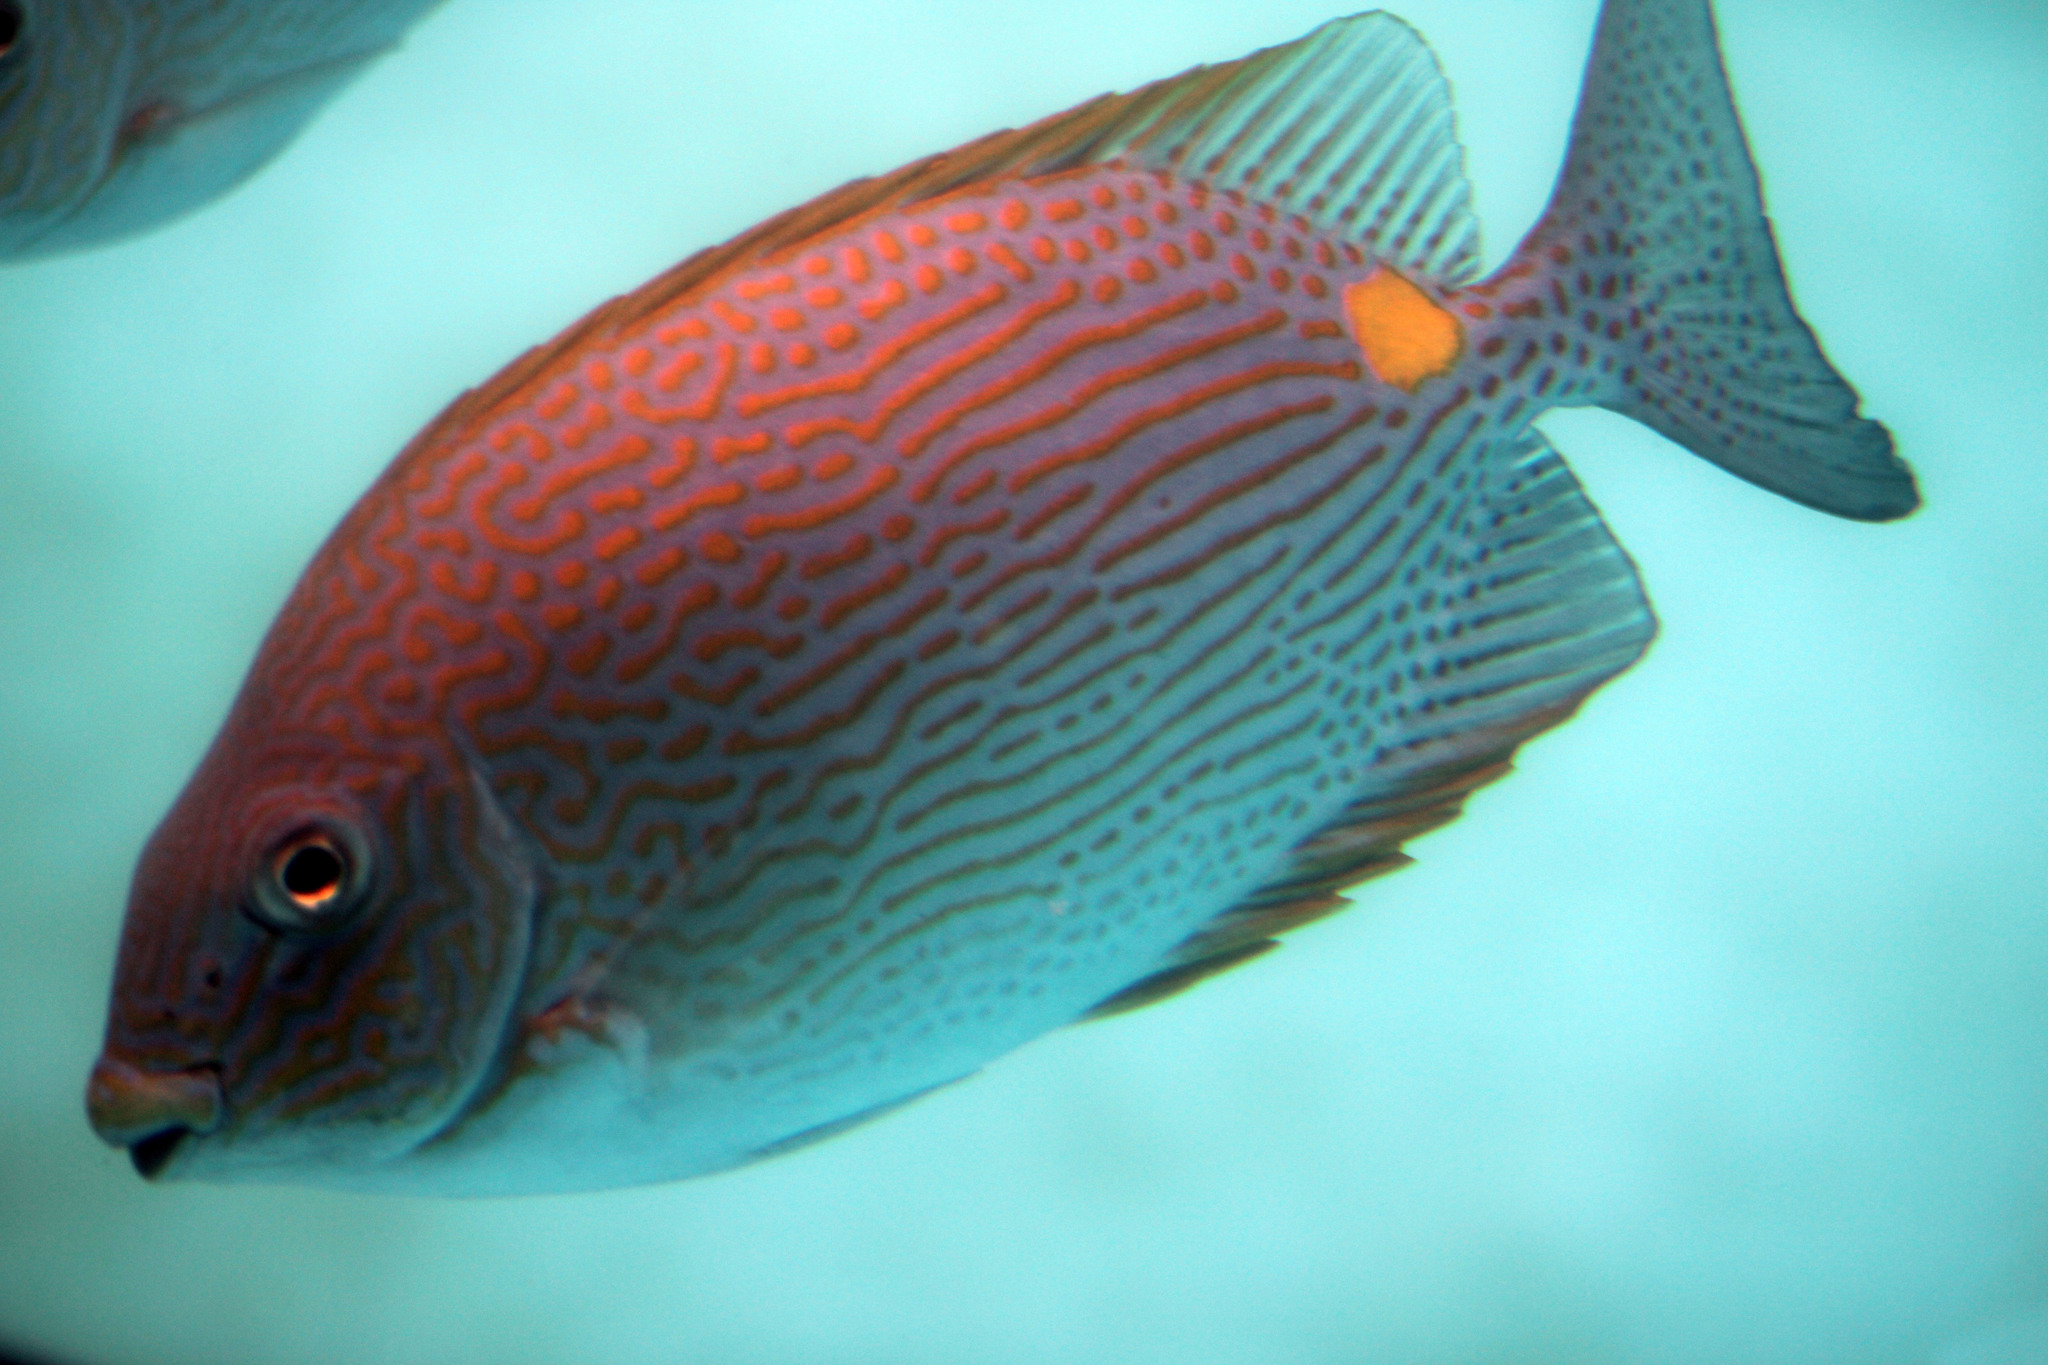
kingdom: Animalia
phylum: Chordata
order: Perciformes
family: Siganidae
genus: Siganus
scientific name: Siganus lineatus
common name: Lined rabbitfish
